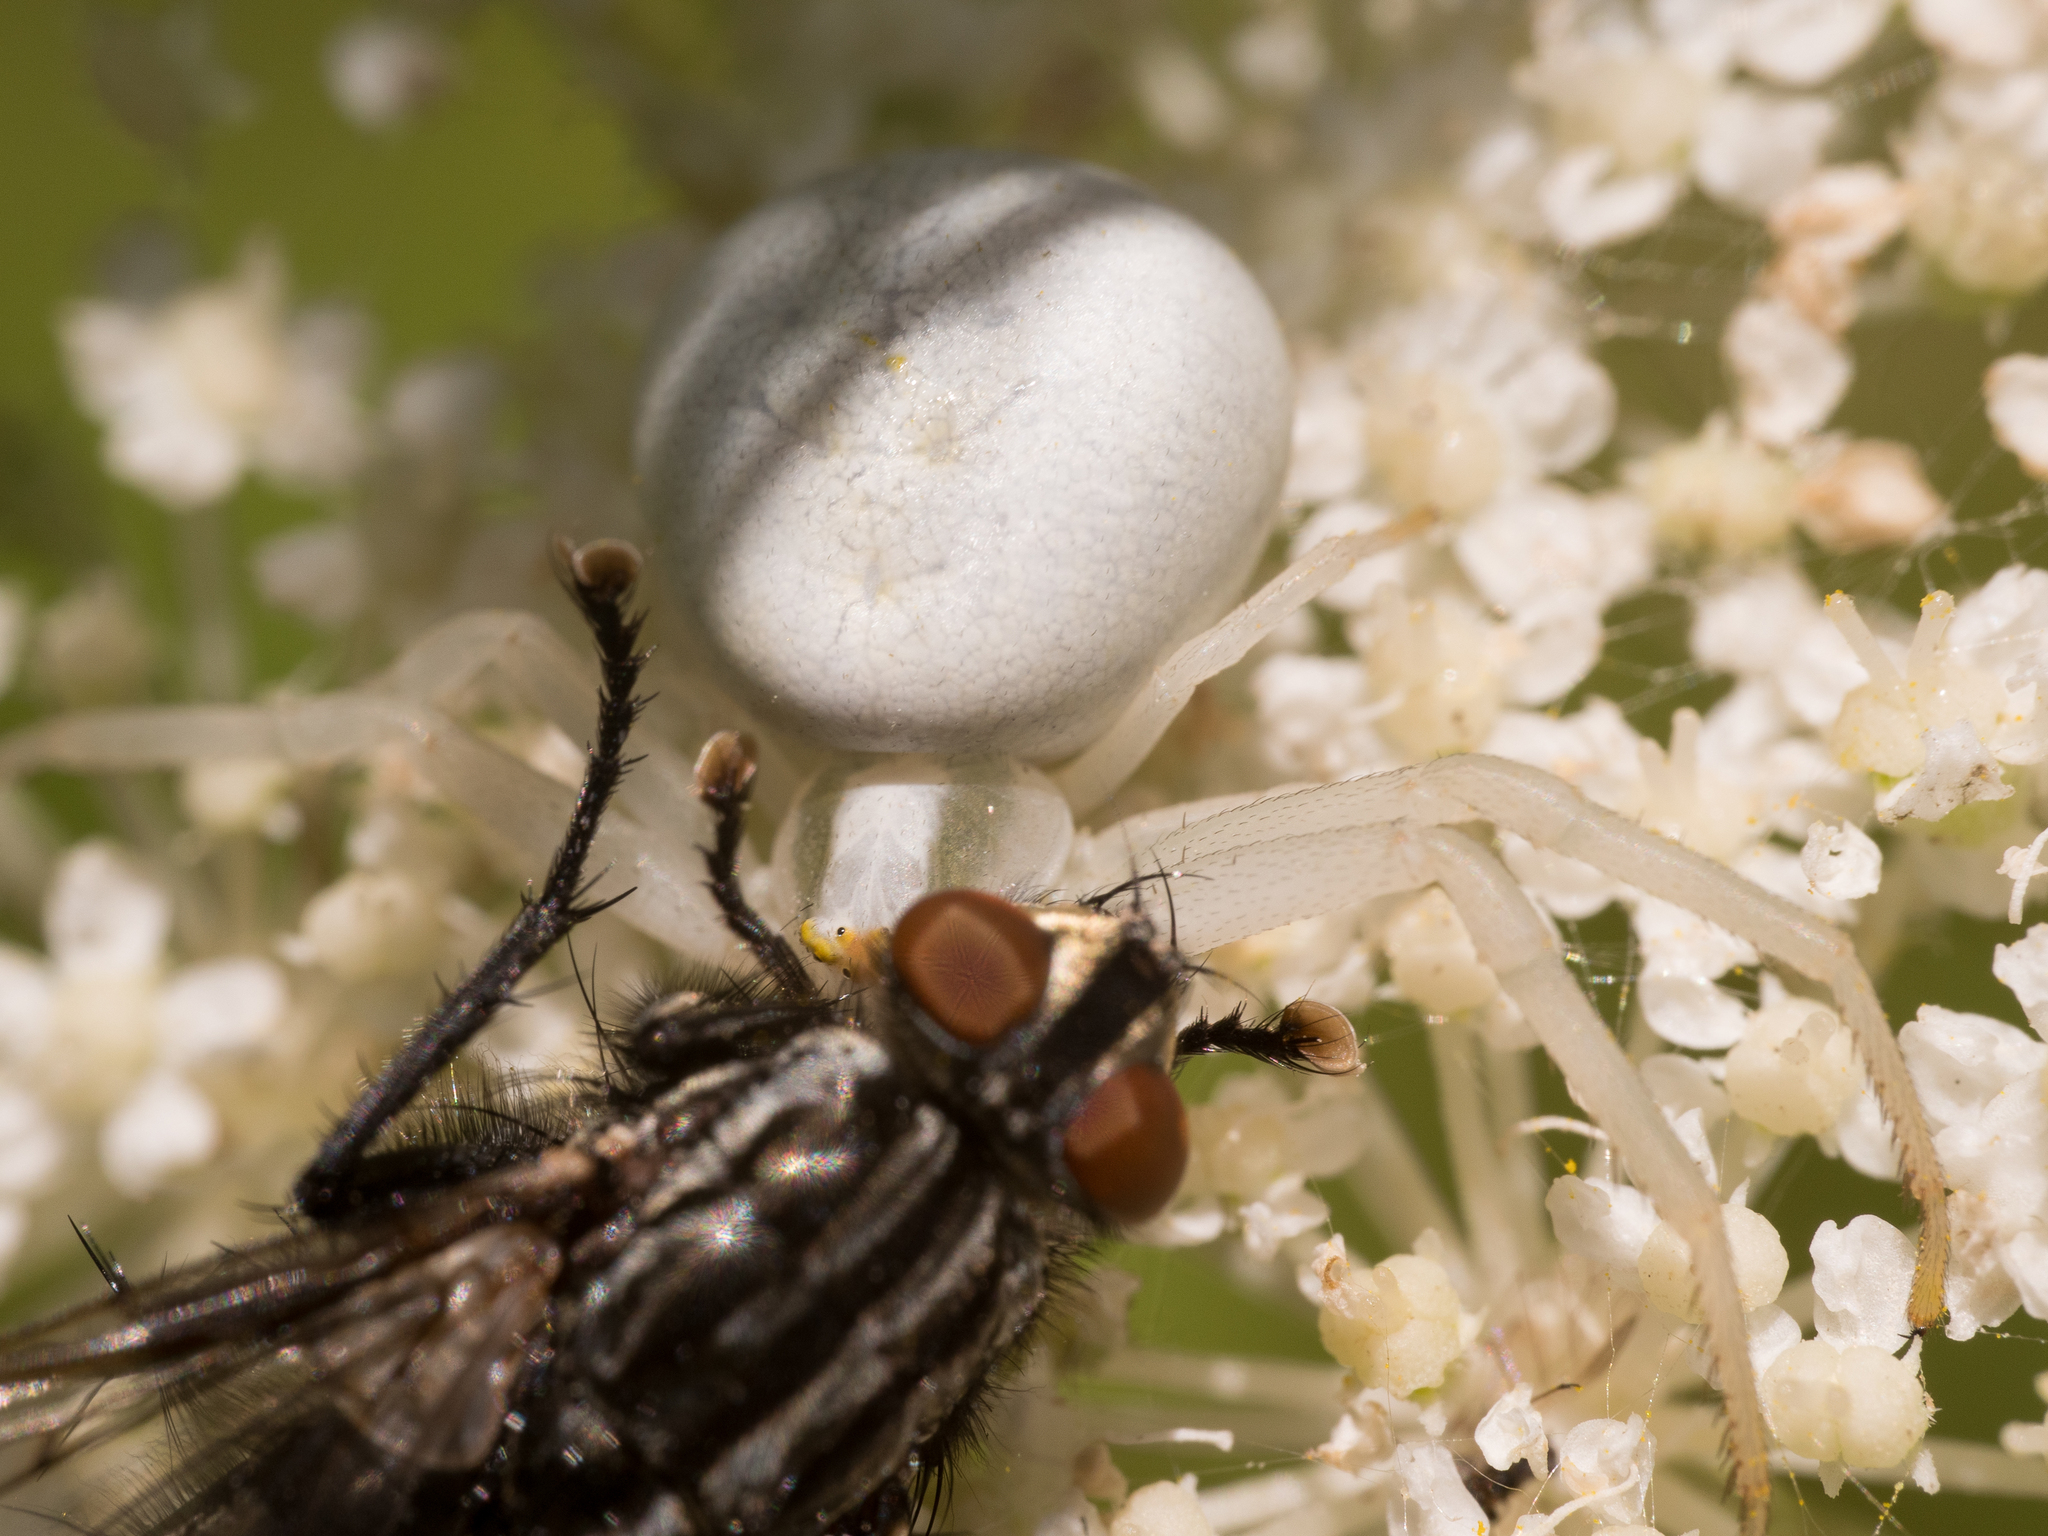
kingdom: Animalia
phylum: Arthropoda
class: Arachnida
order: Araneae
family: Thomisidae
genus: Misumena
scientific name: Misumena vatia
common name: Goldenrod crab spider
